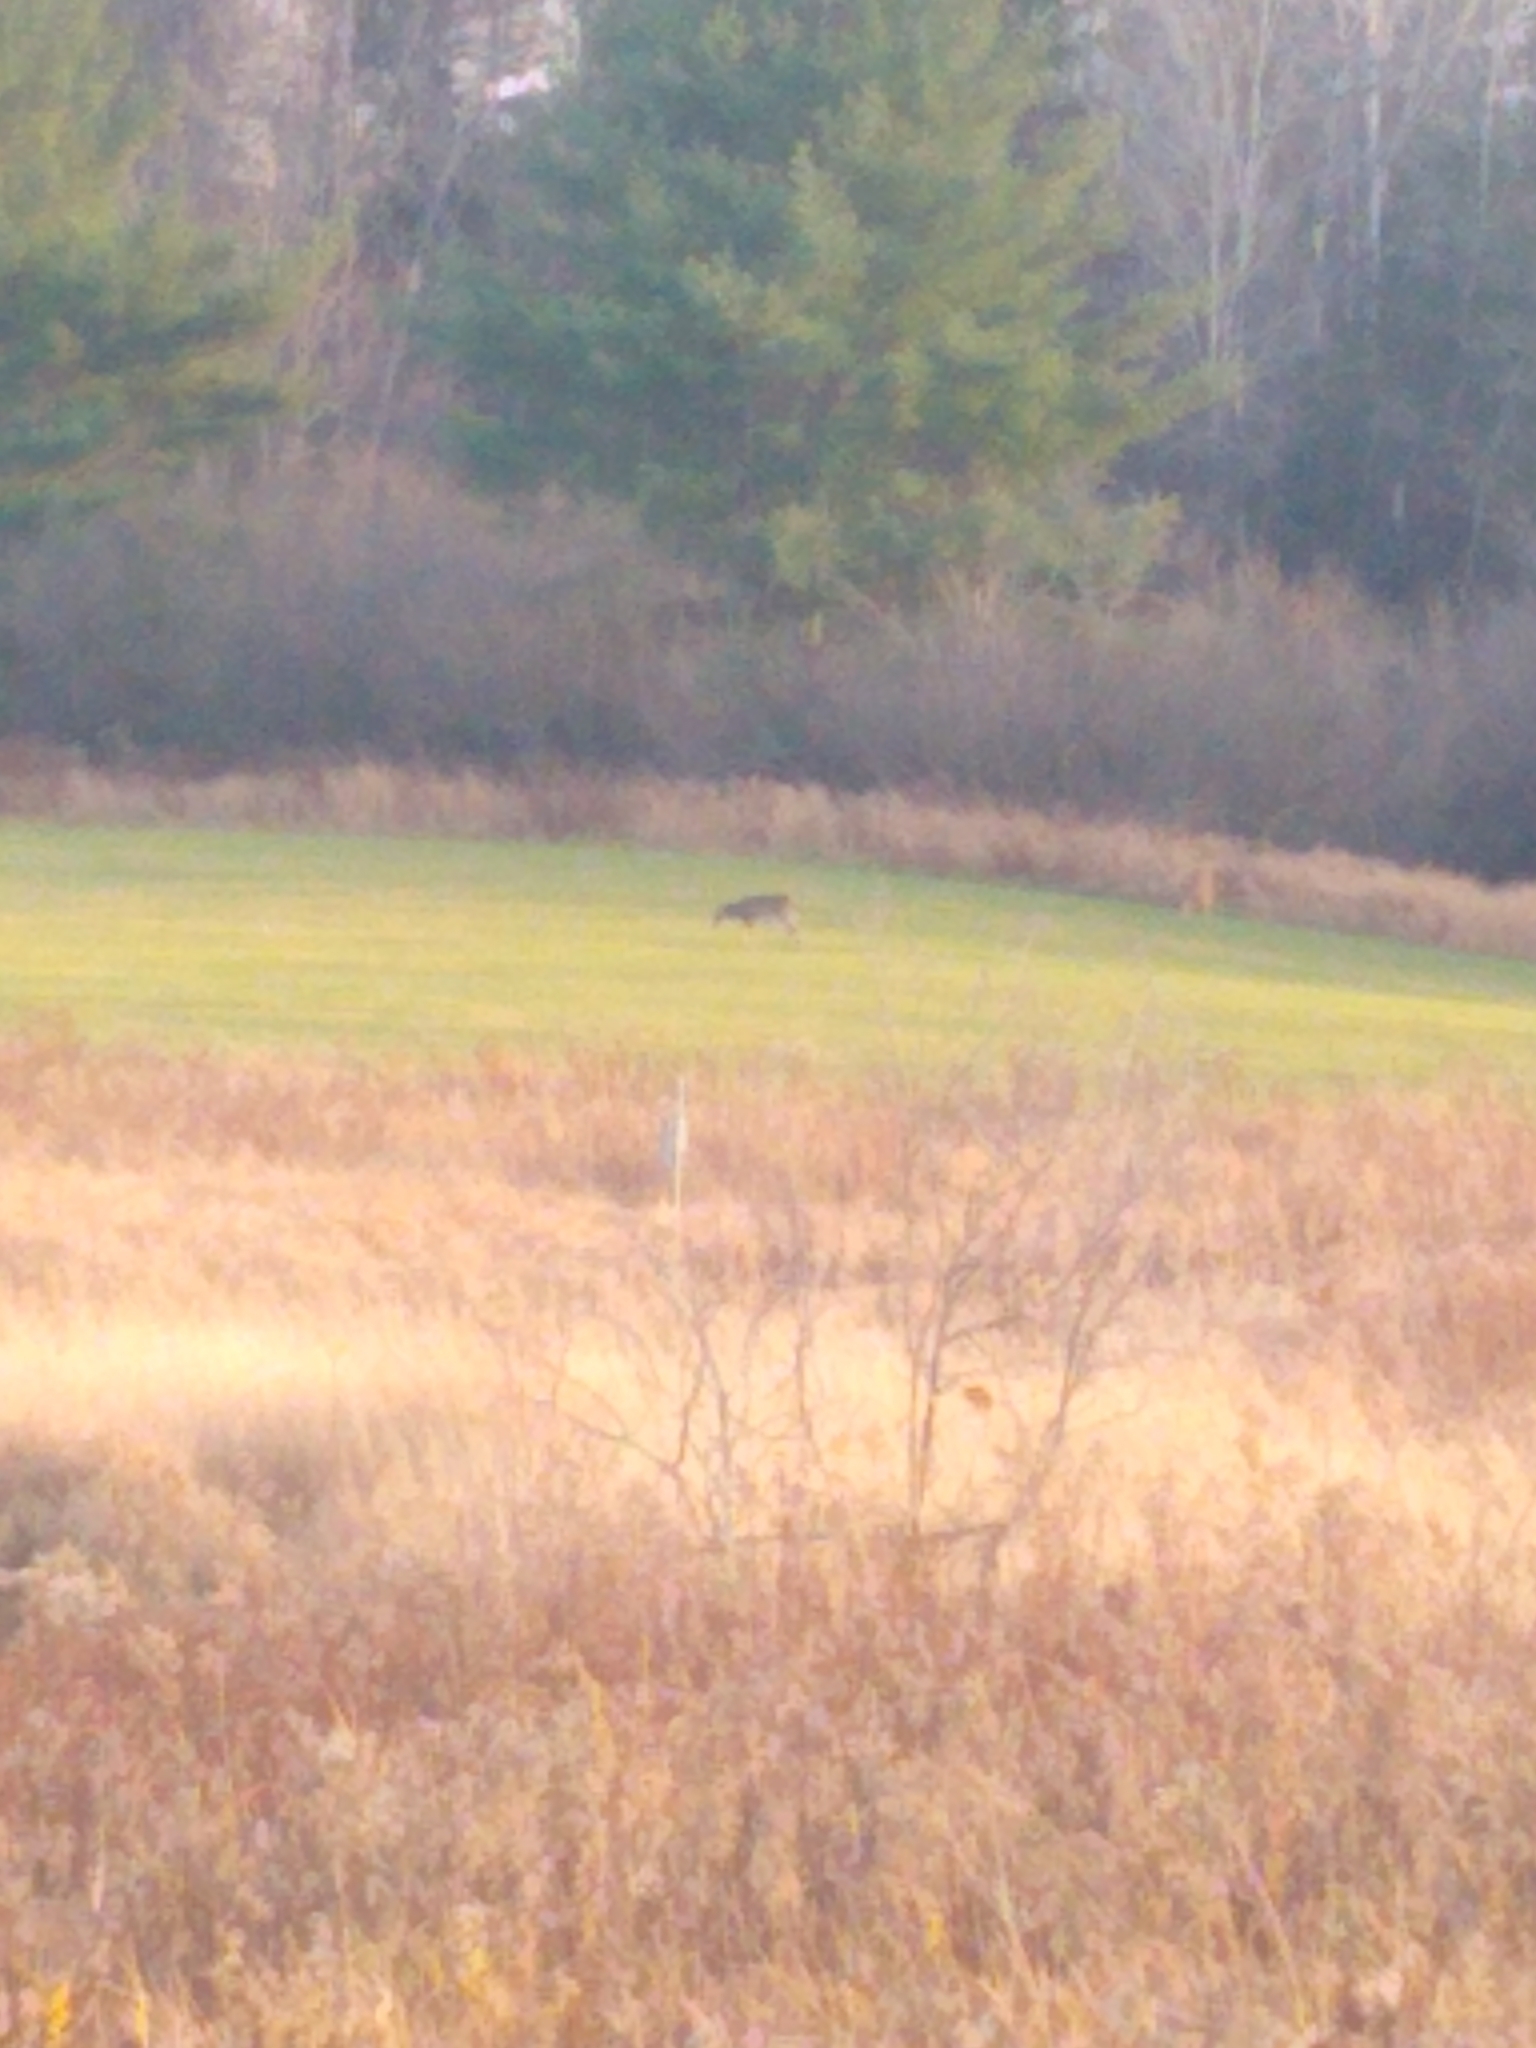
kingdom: Animalia
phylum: Chordata
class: Mammalia
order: Artiodactyla
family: Cervidae
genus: Odocoileus
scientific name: Odocoileus virginianus
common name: White-tailed deer
